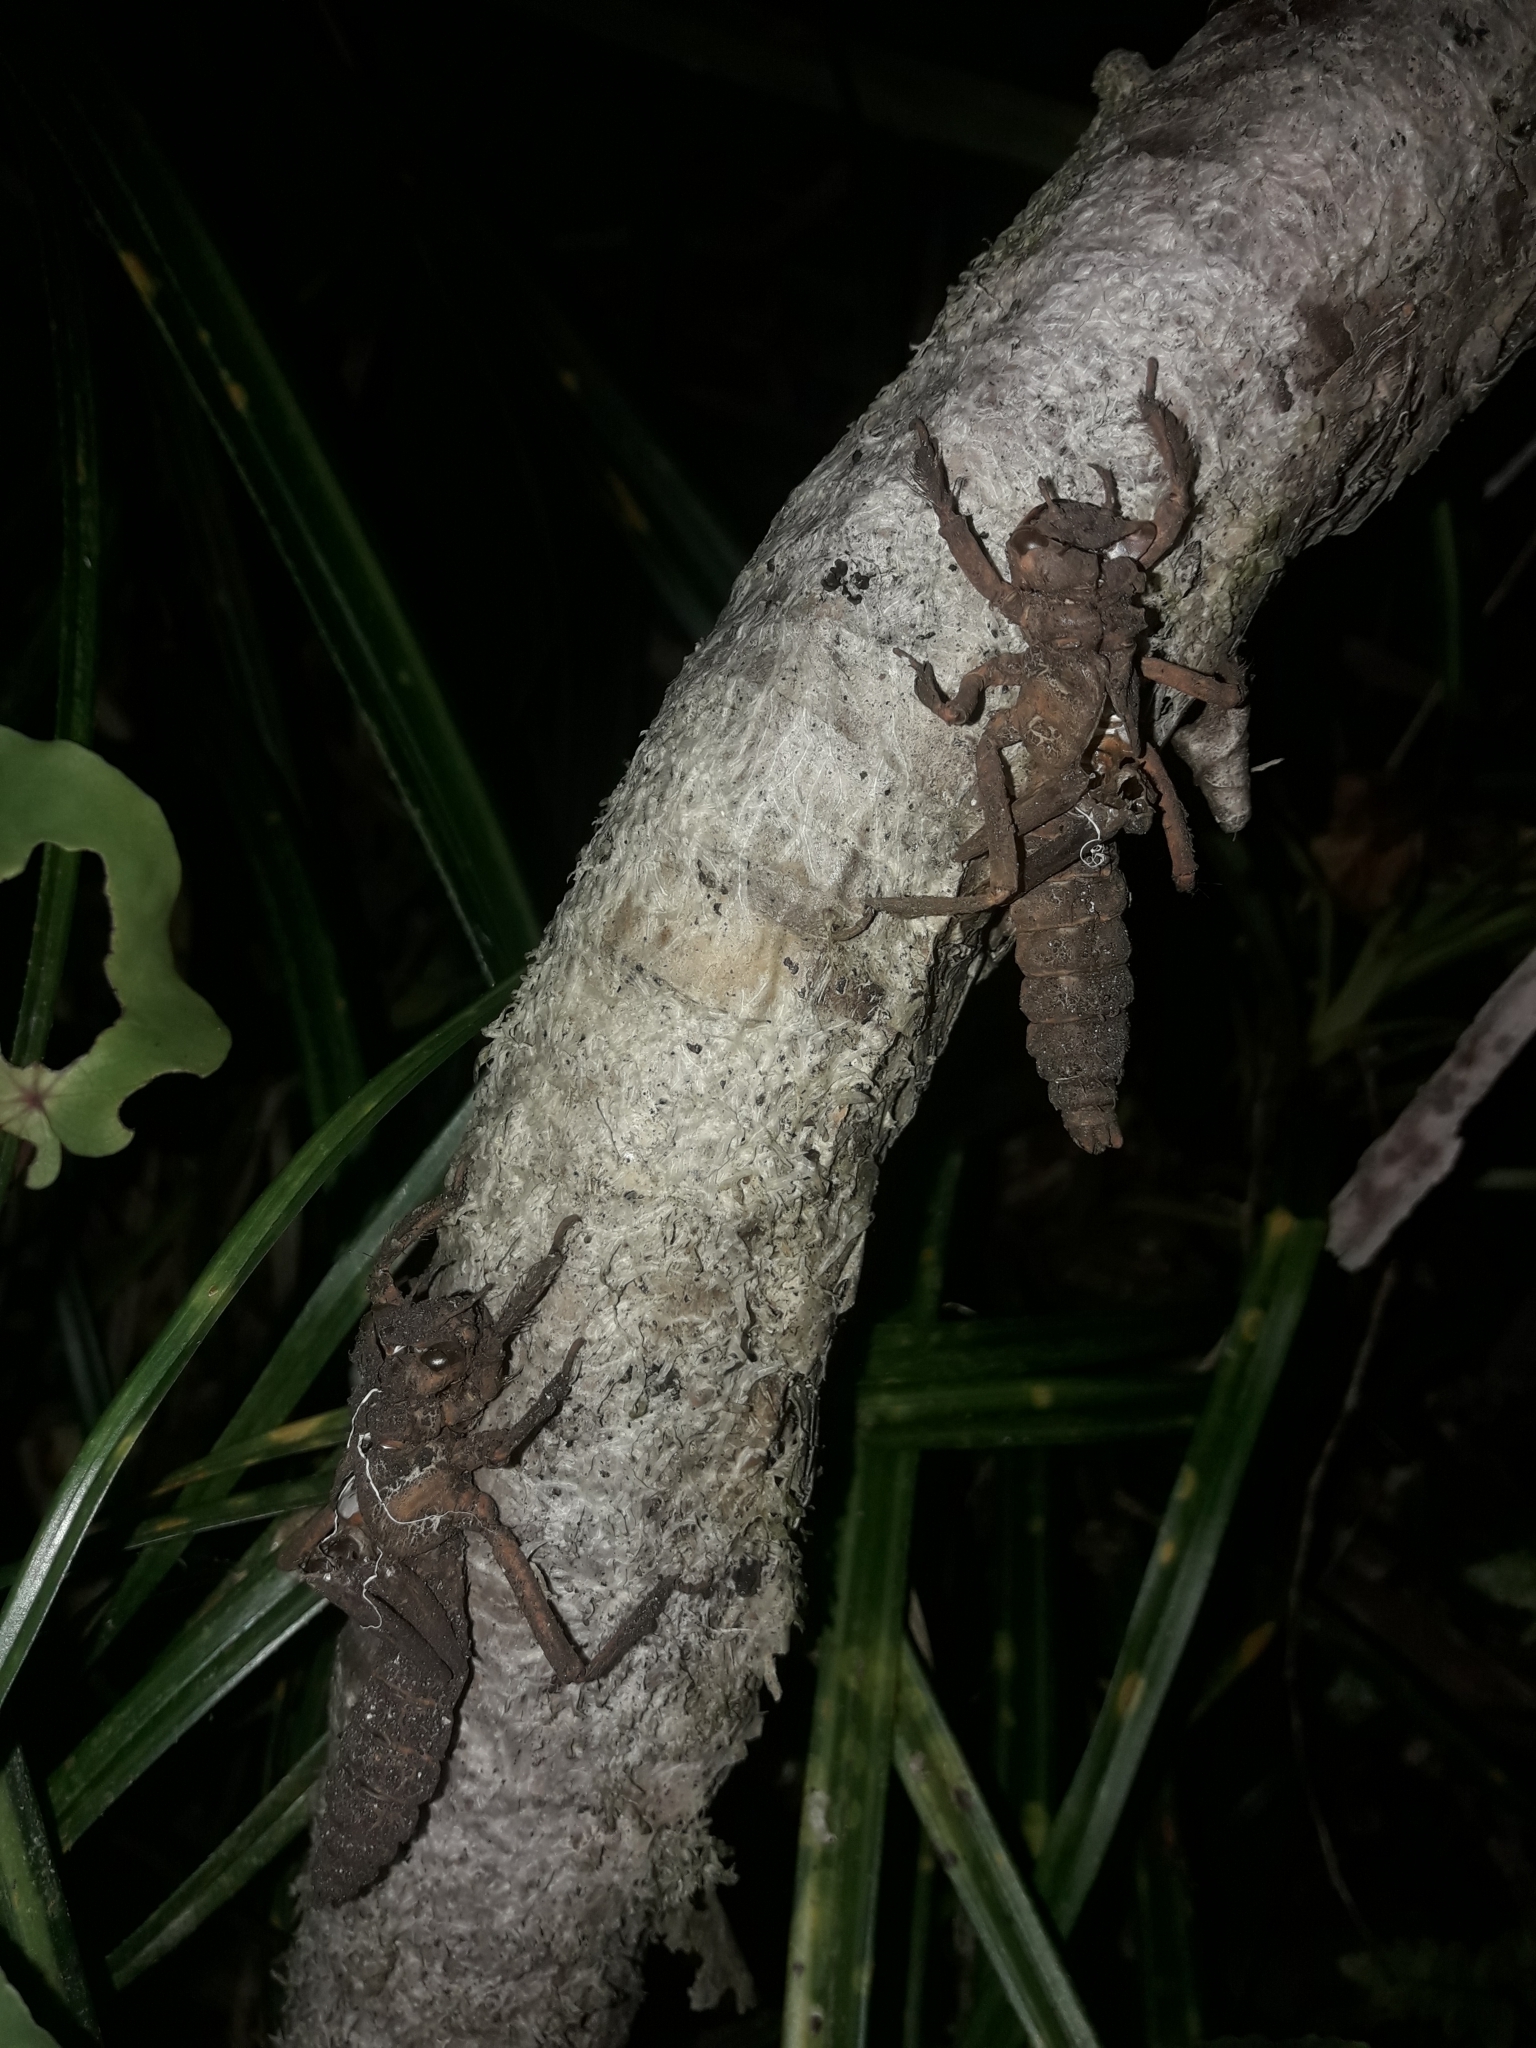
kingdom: Animalia
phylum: Arthropoda
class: Insecta
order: Odonata
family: Petaluridae
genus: Uropetala
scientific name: Uropetala carovei
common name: Bush giant dragonfly
